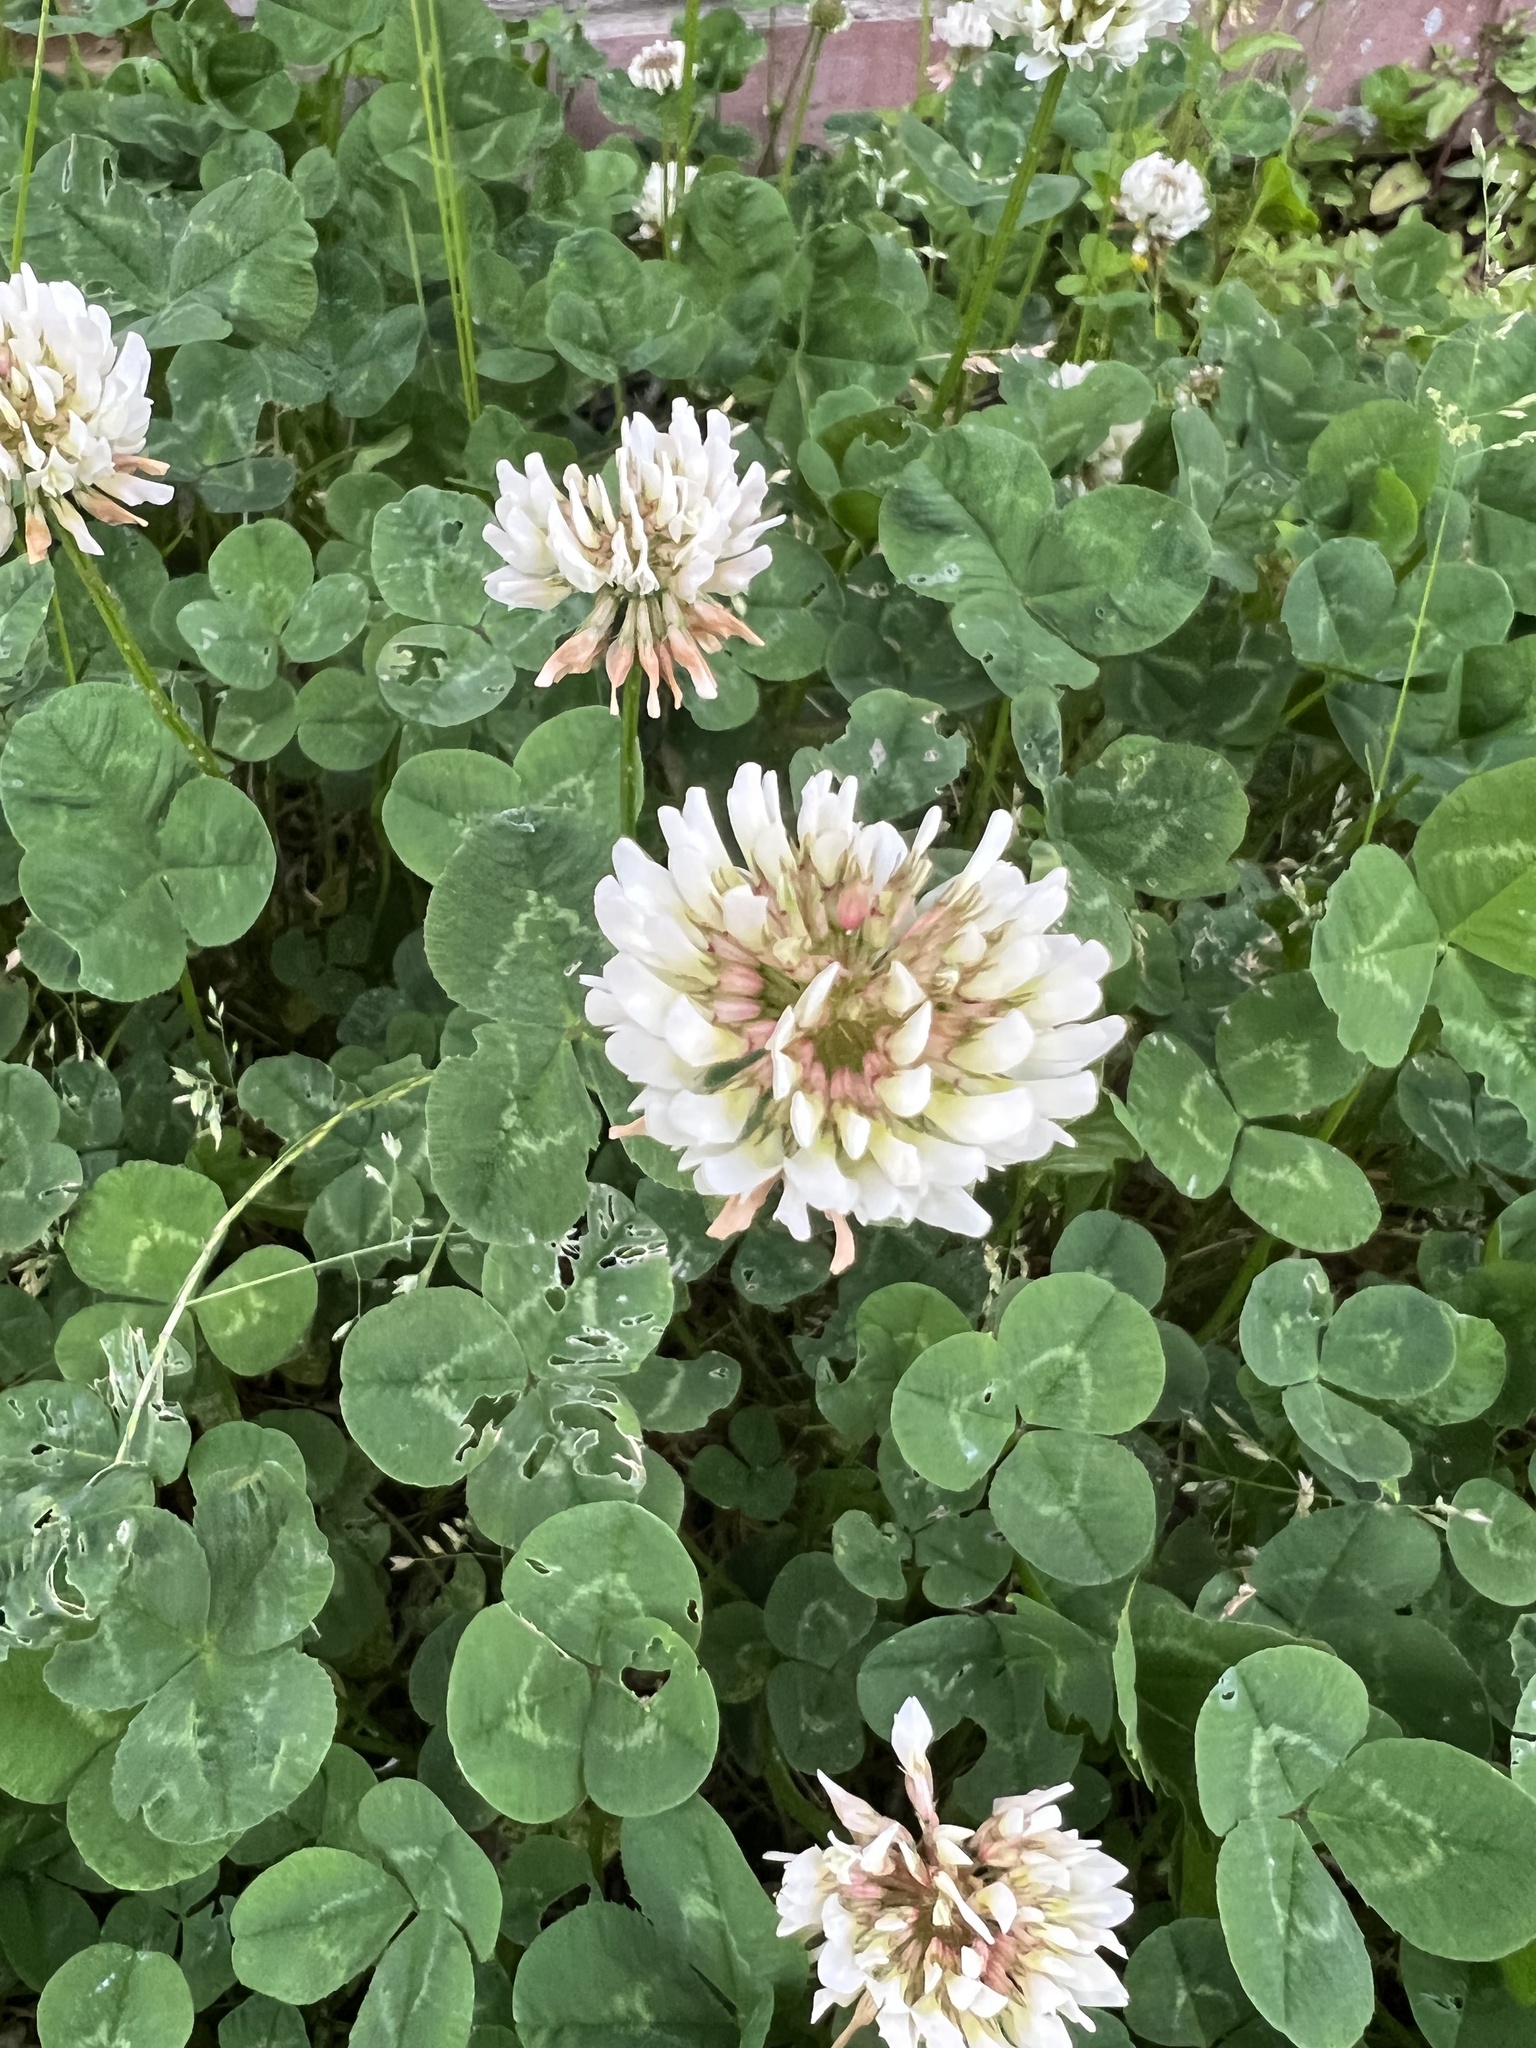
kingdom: Plantae
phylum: Tracheophyta
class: Magnoliopsida
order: Fabales
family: Fabaceae
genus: Trifolium
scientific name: Trifolium repens
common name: White clover
